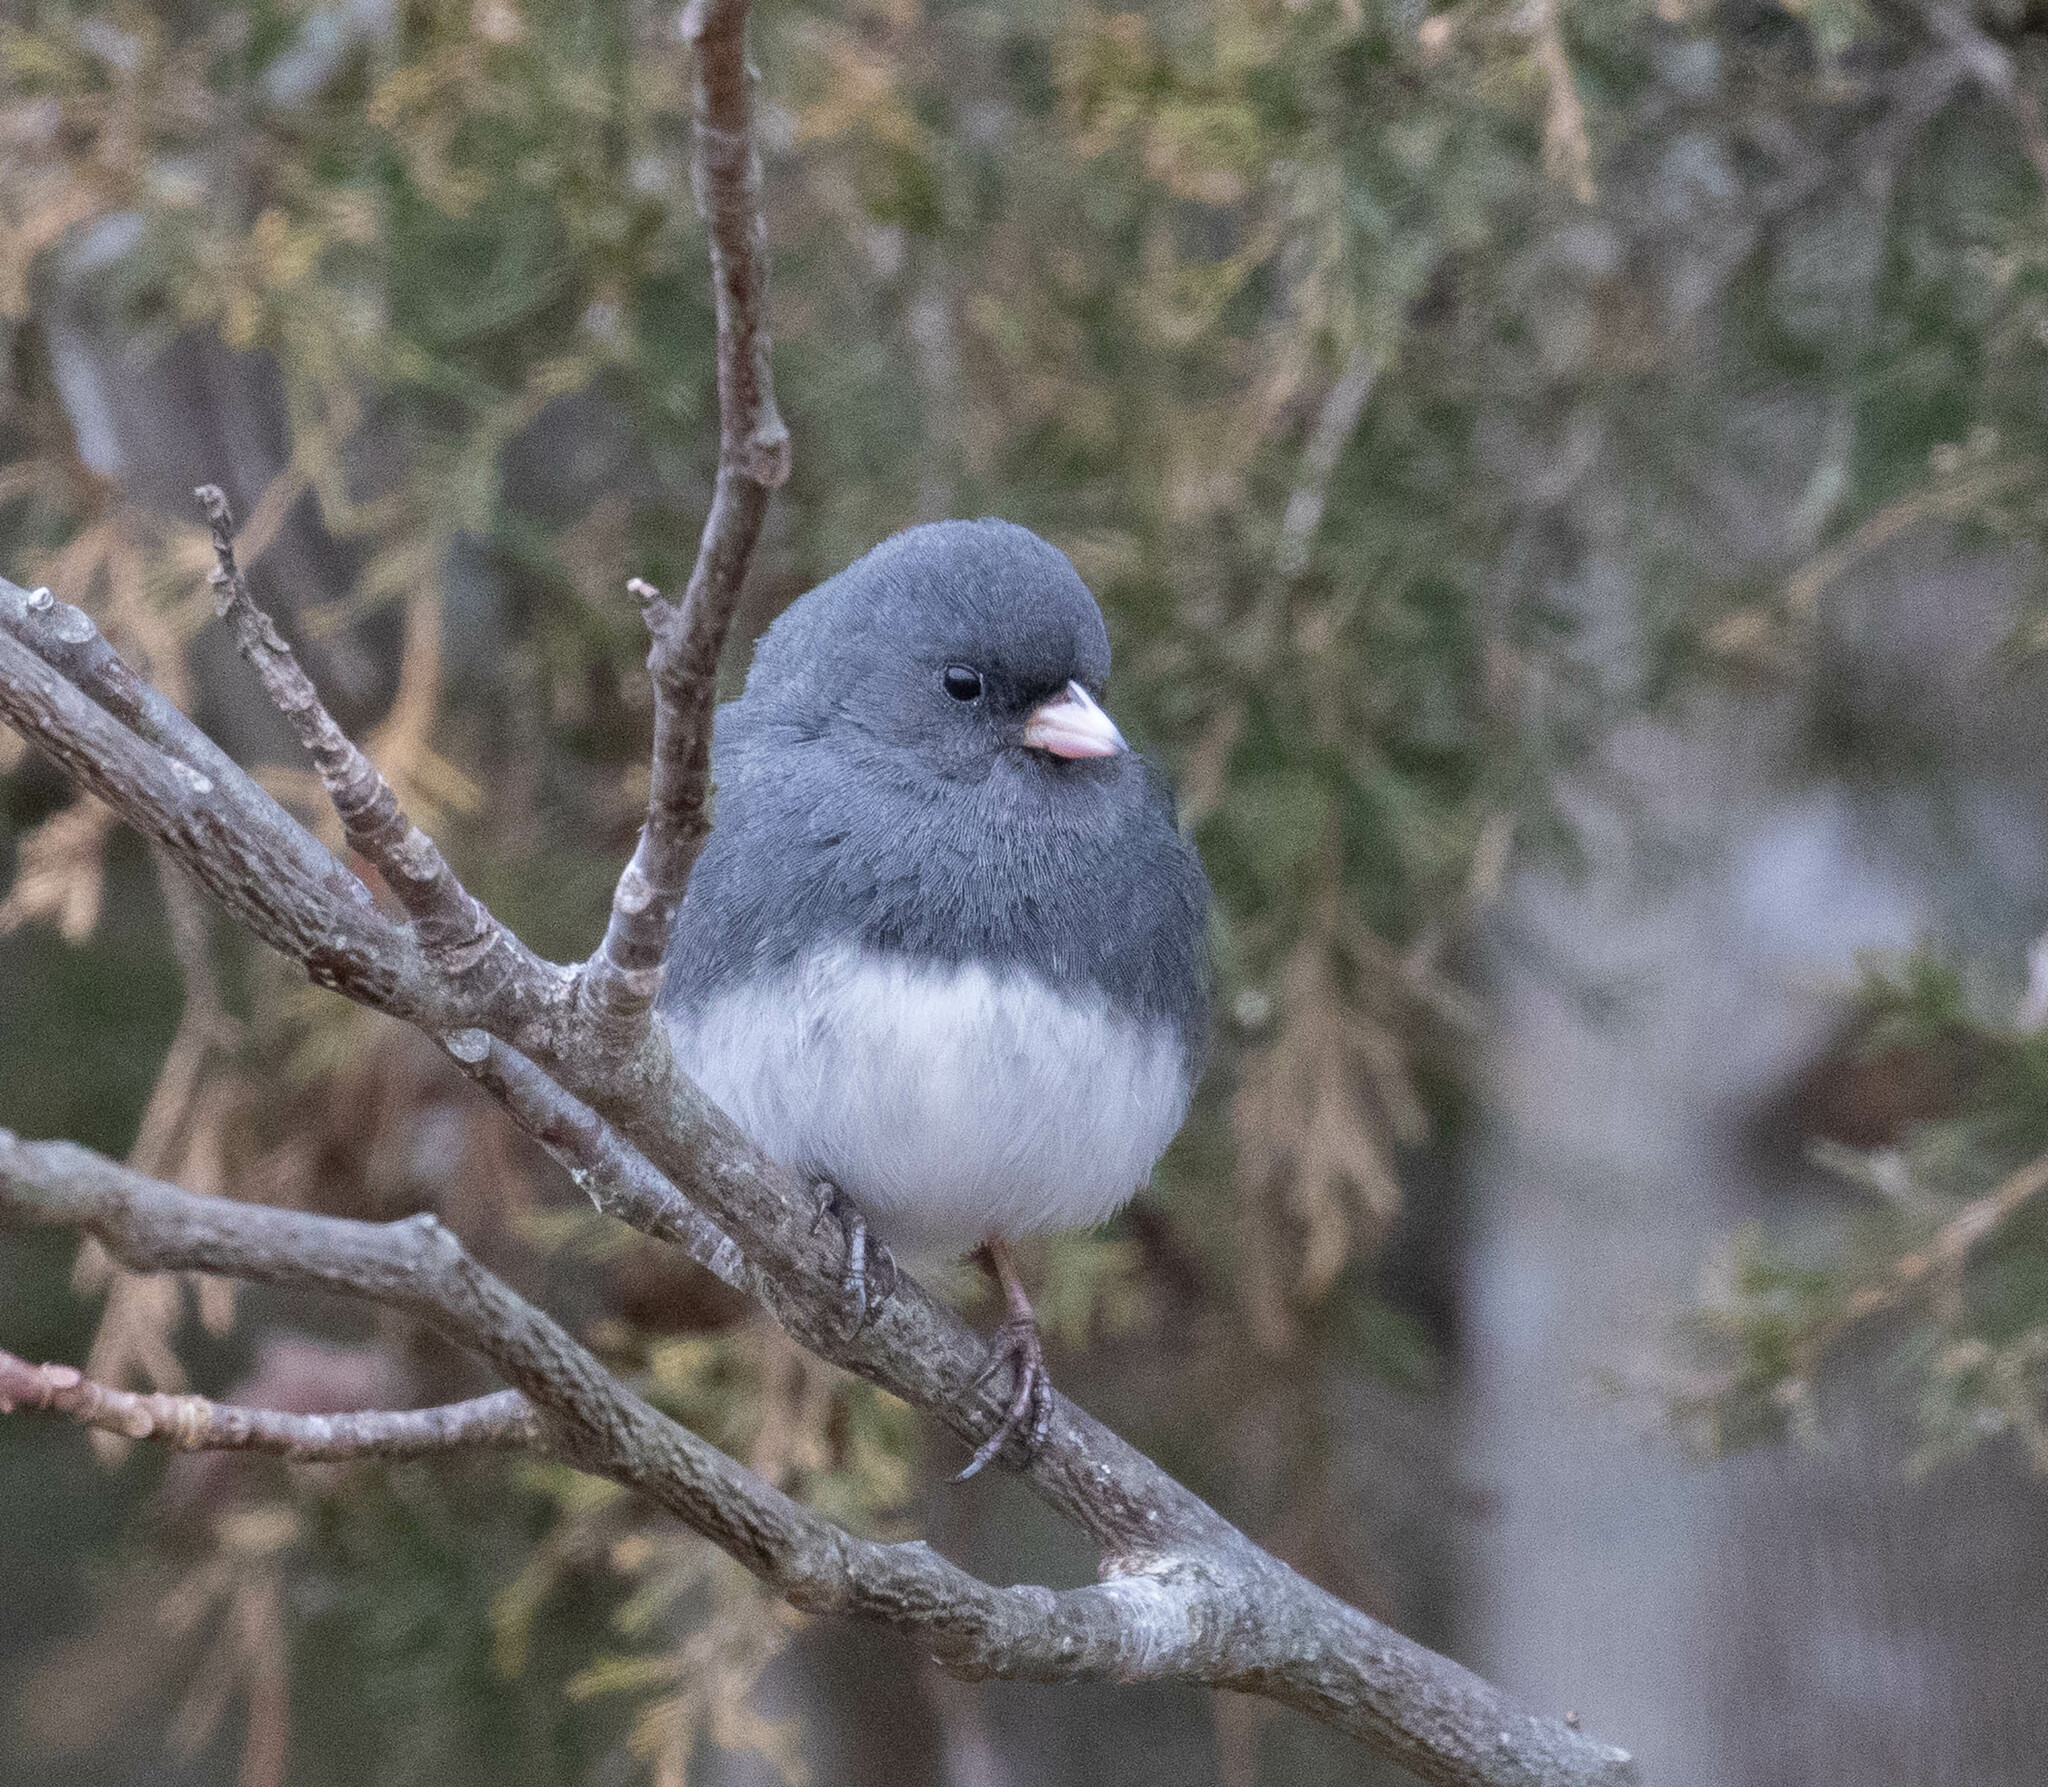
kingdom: Animalia
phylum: Chordata
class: Aves
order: Passeriformes
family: Passerellidae
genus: Junco
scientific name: Junco hyemalis
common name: Dark-eyed junco
